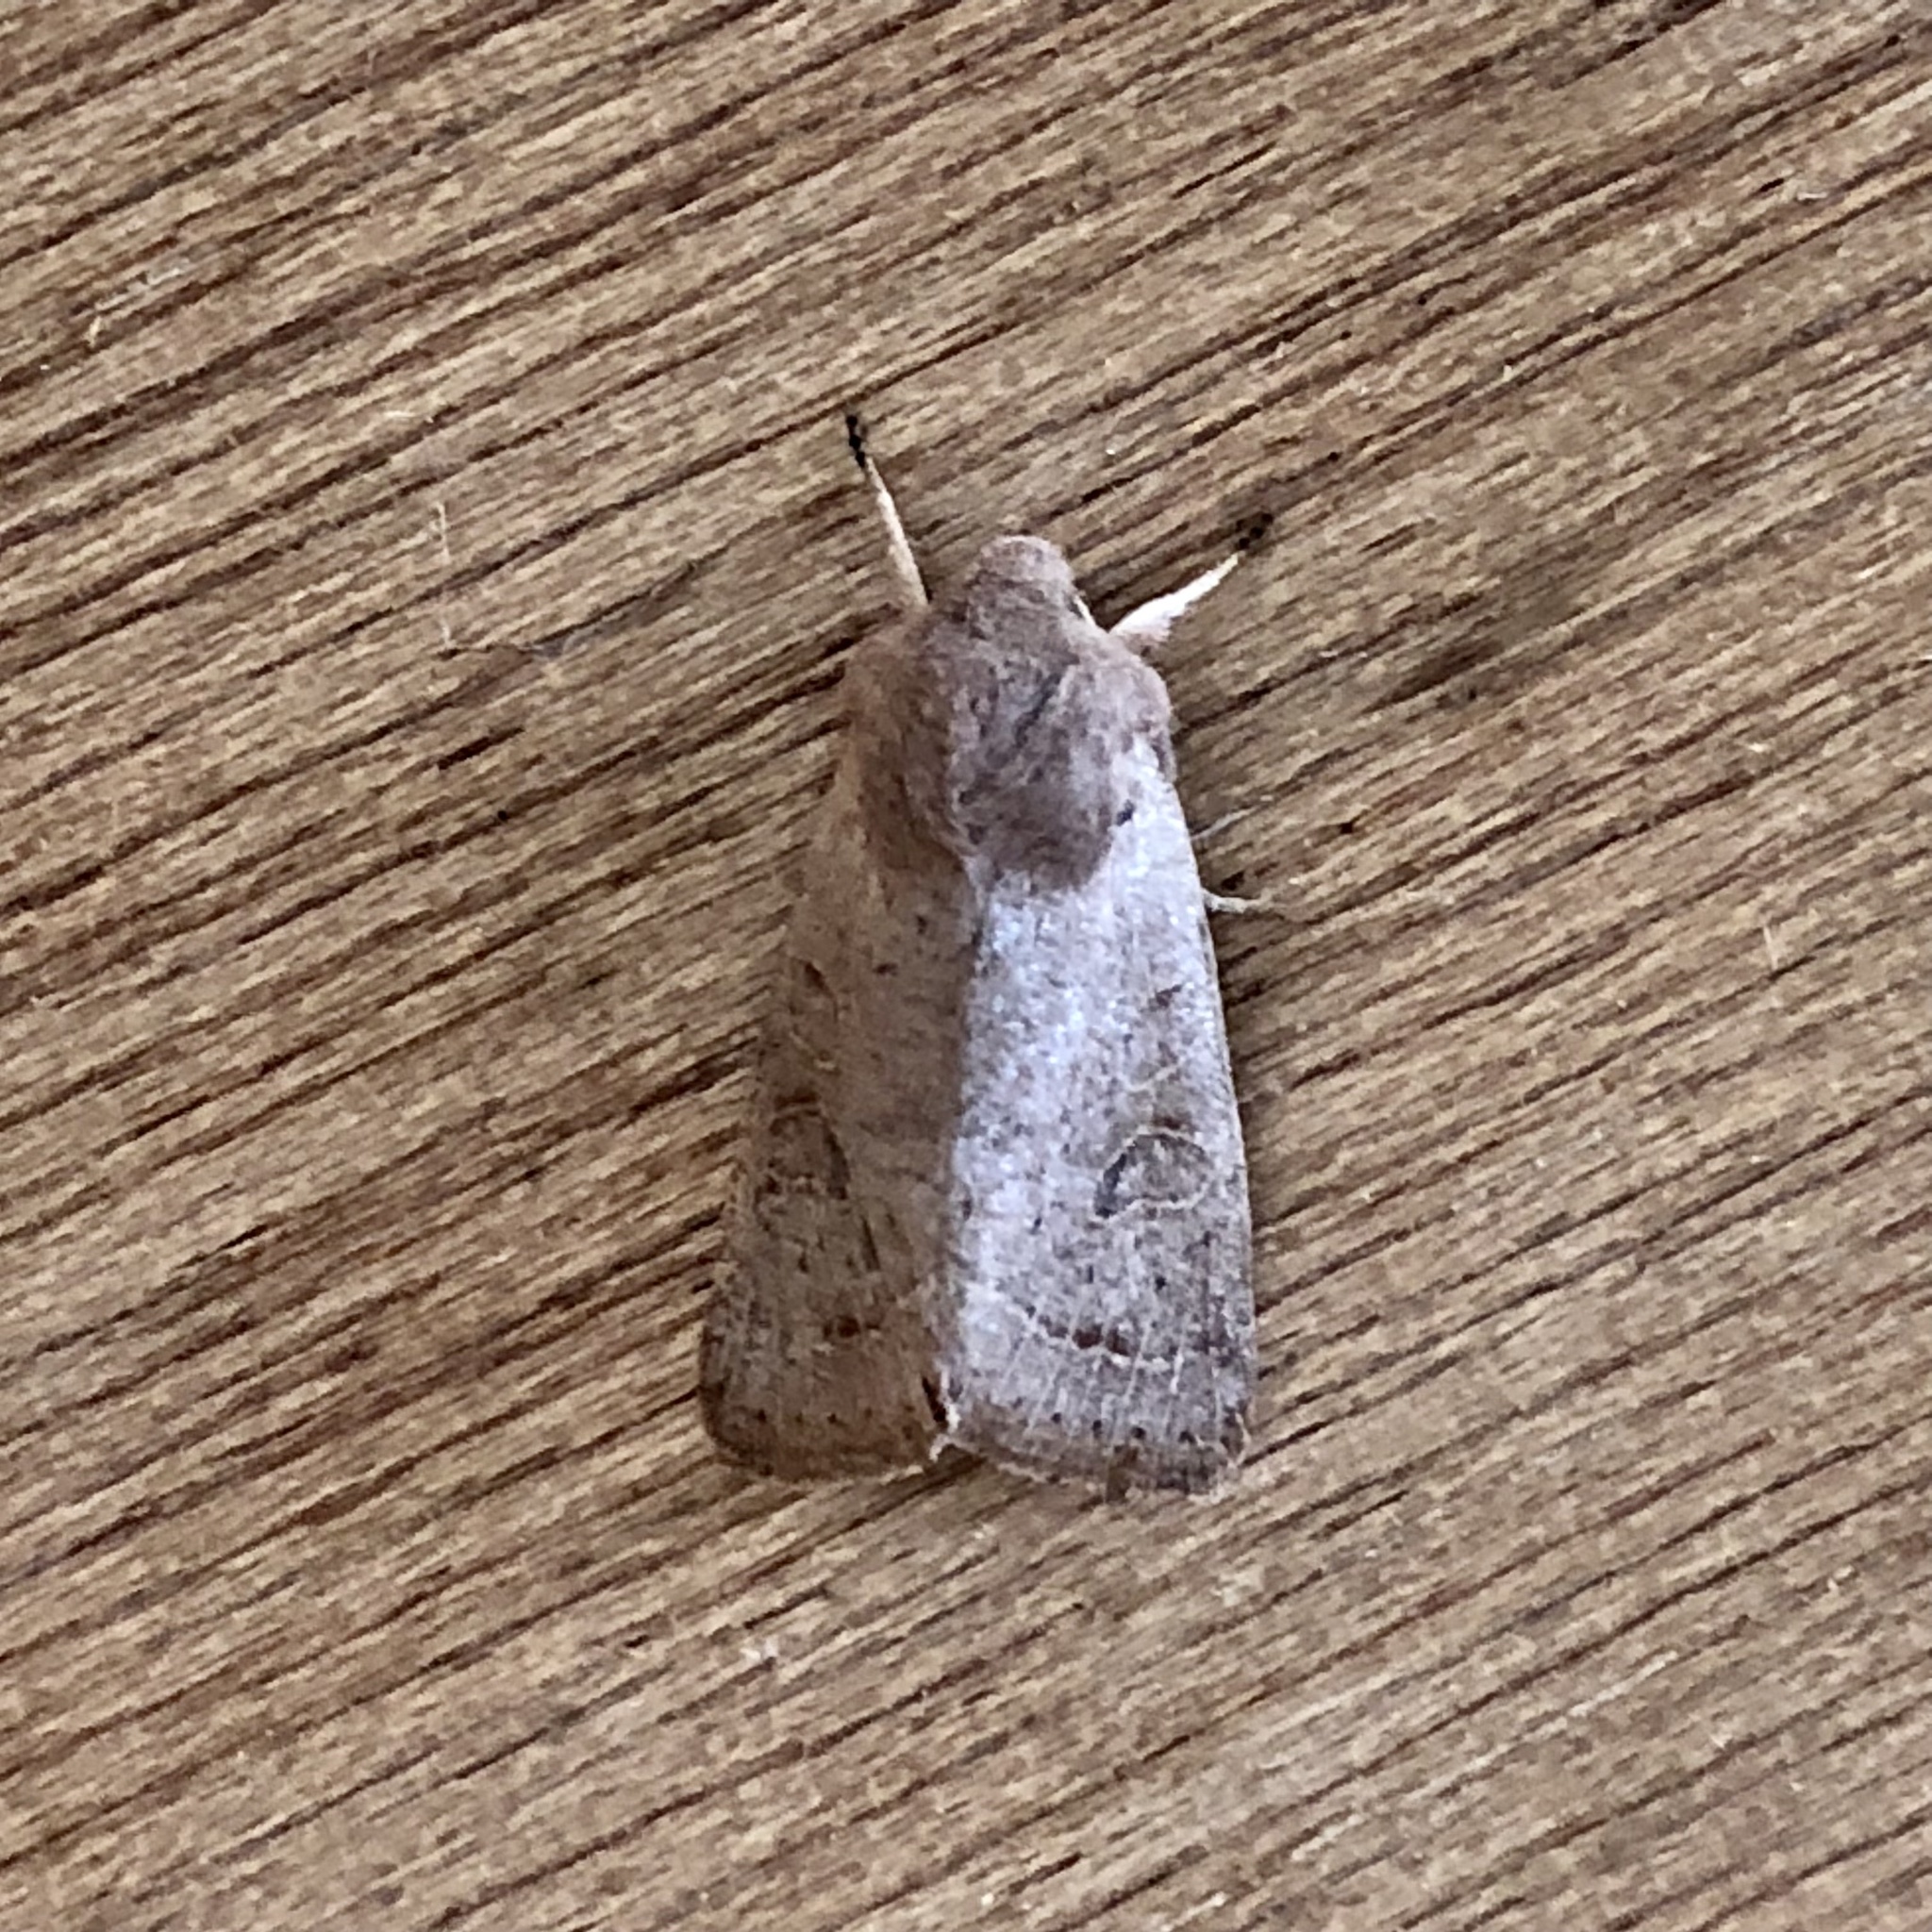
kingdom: Animalia
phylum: Arthropoda
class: Insecta
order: Lepidoptera
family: Noctuidae
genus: Orthosia
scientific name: Orthosia cerasi
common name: Common quaker
